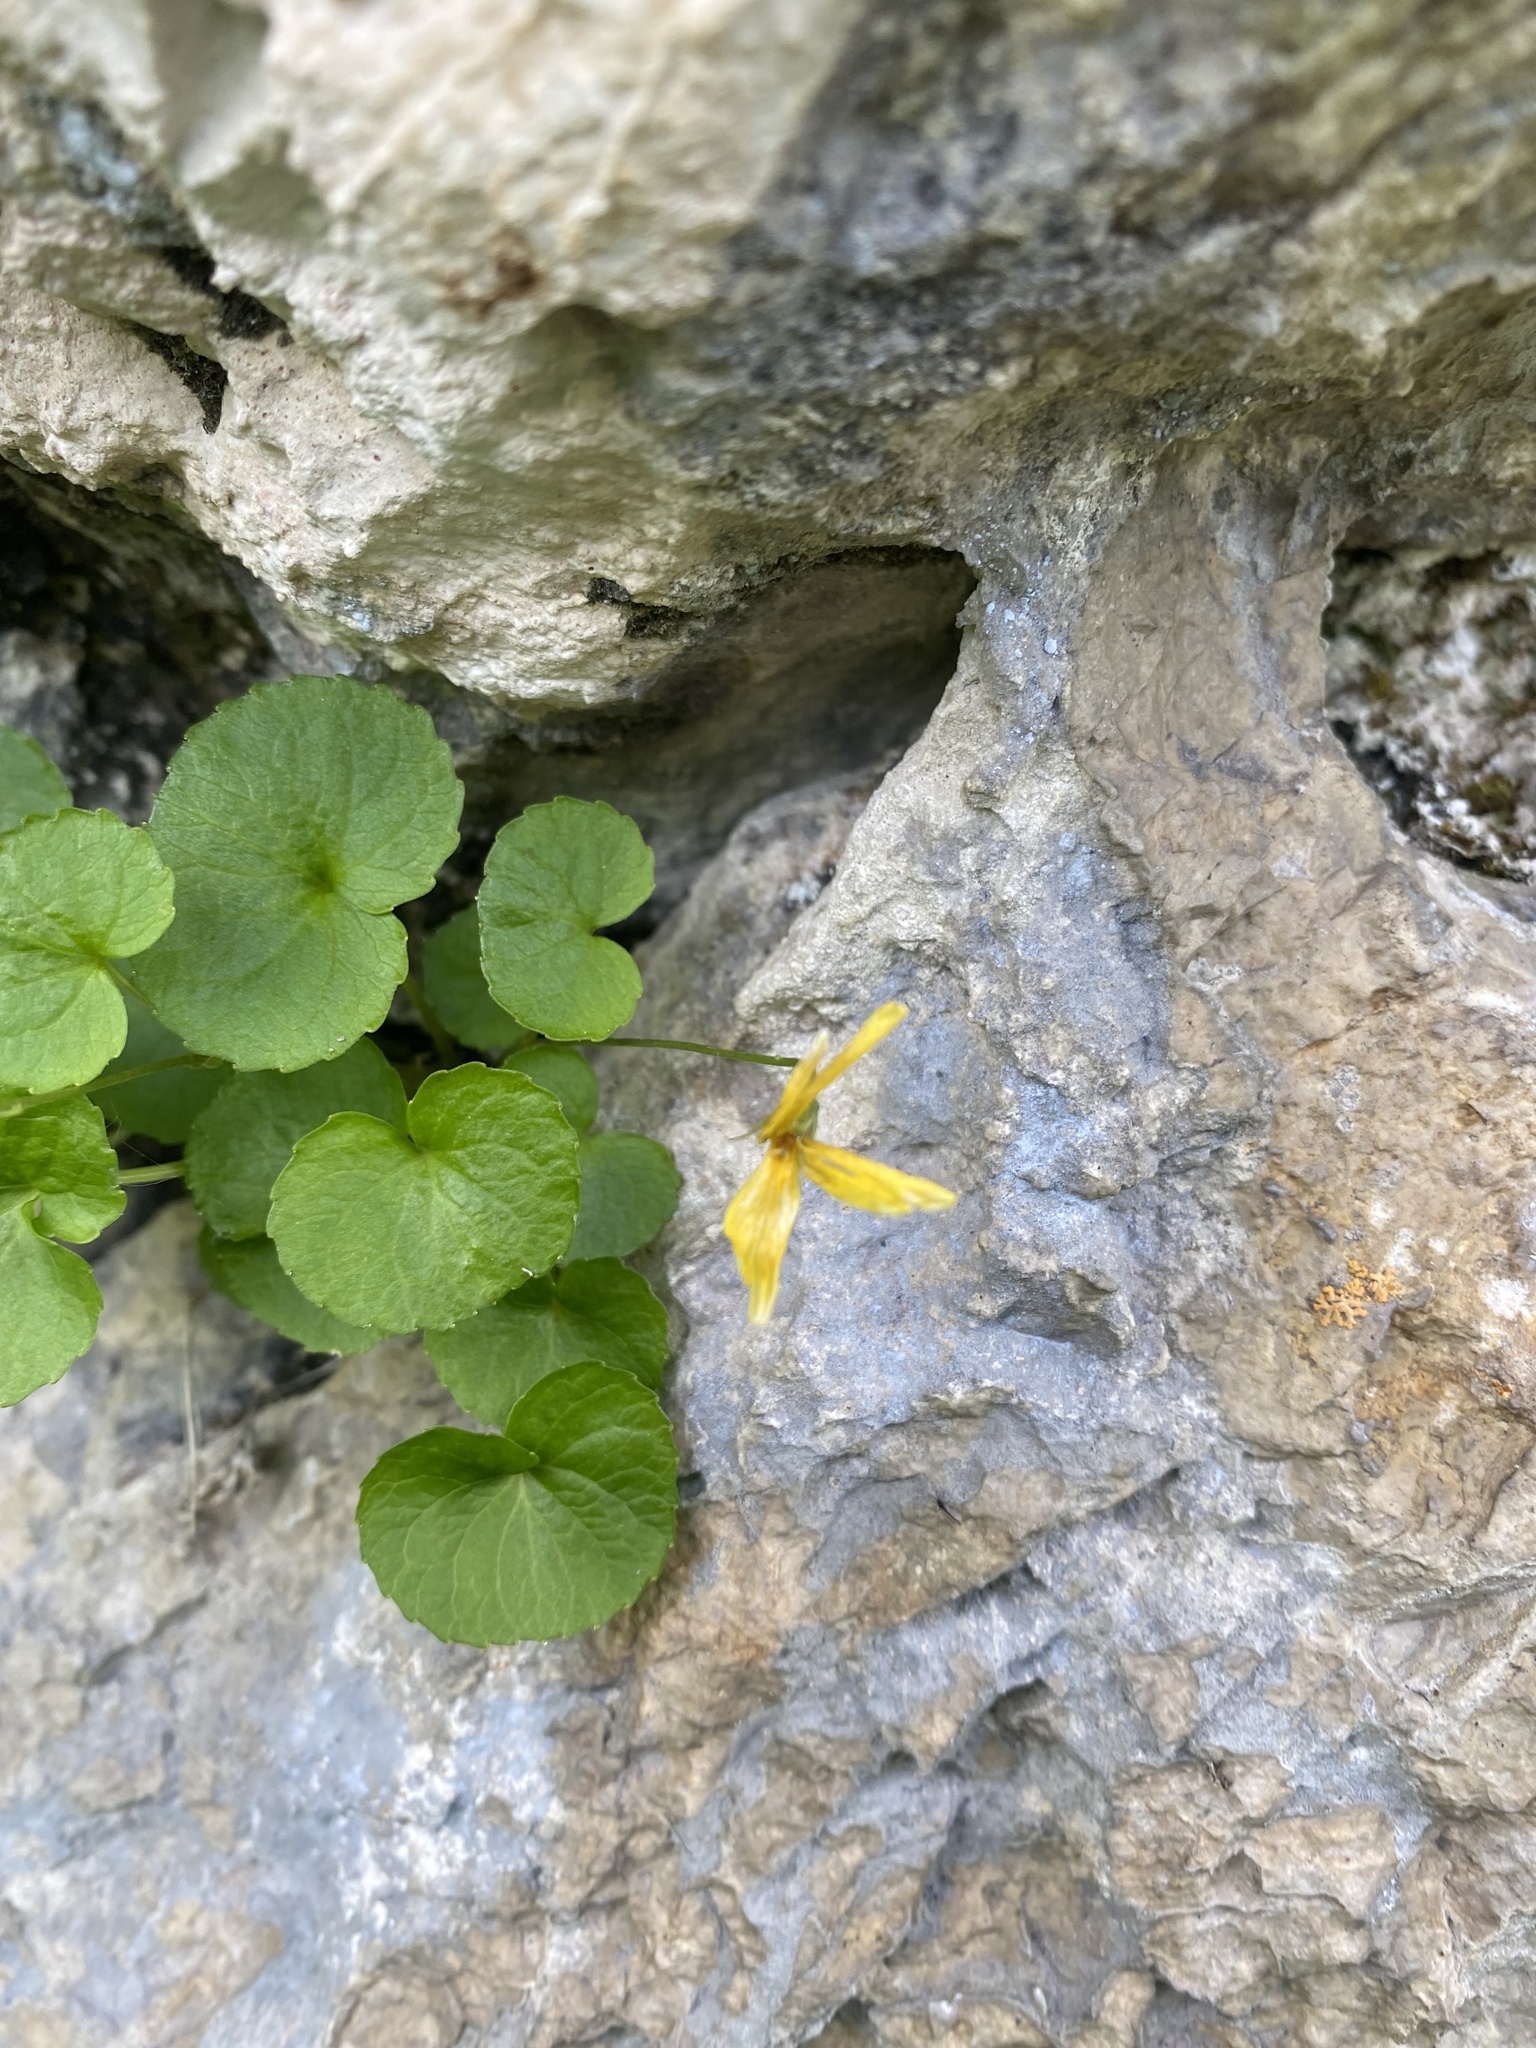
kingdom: Plantae
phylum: Tracheophyta
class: Magnoliopsida
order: Malpighiales
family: Violaceae
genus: Viola
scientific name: Viola caucasica
